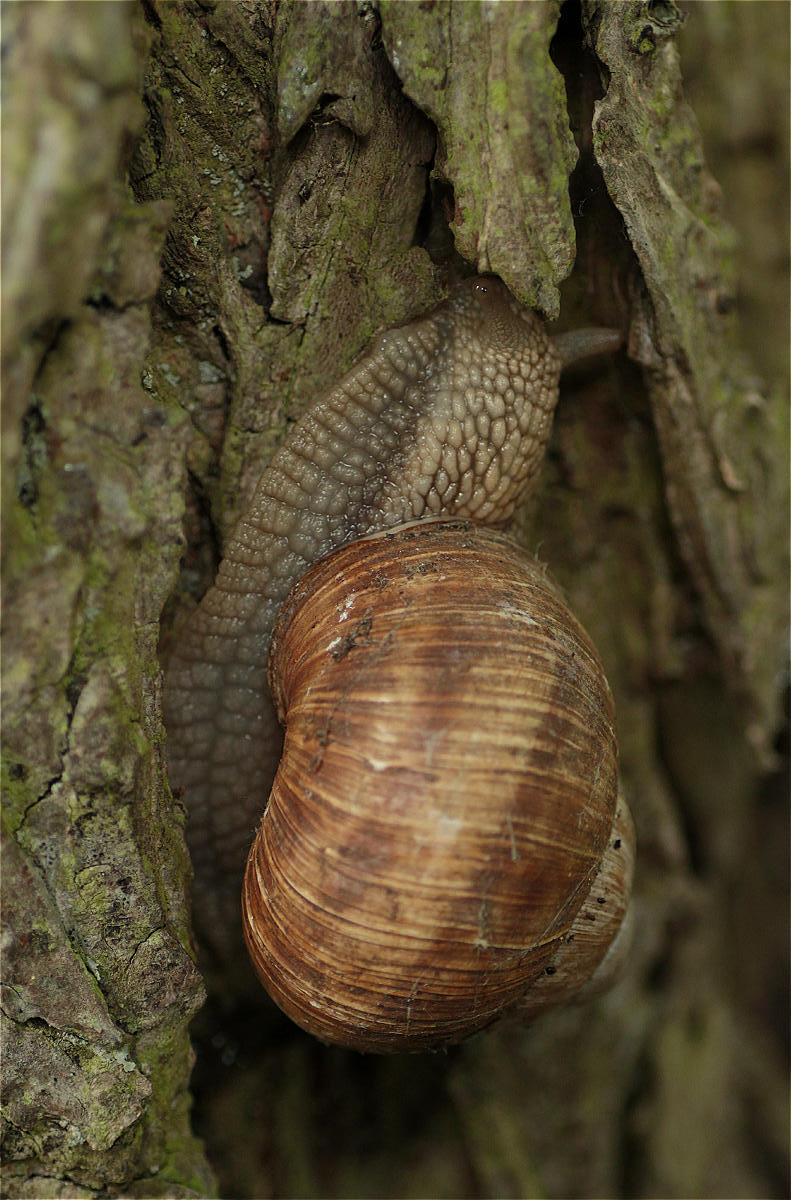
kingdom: Animalia
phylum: Mollusca
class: Gastropoda
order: Stylommatophora
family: Helicidae
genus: Helix
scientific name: Helix pomatia
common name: Roman snail
